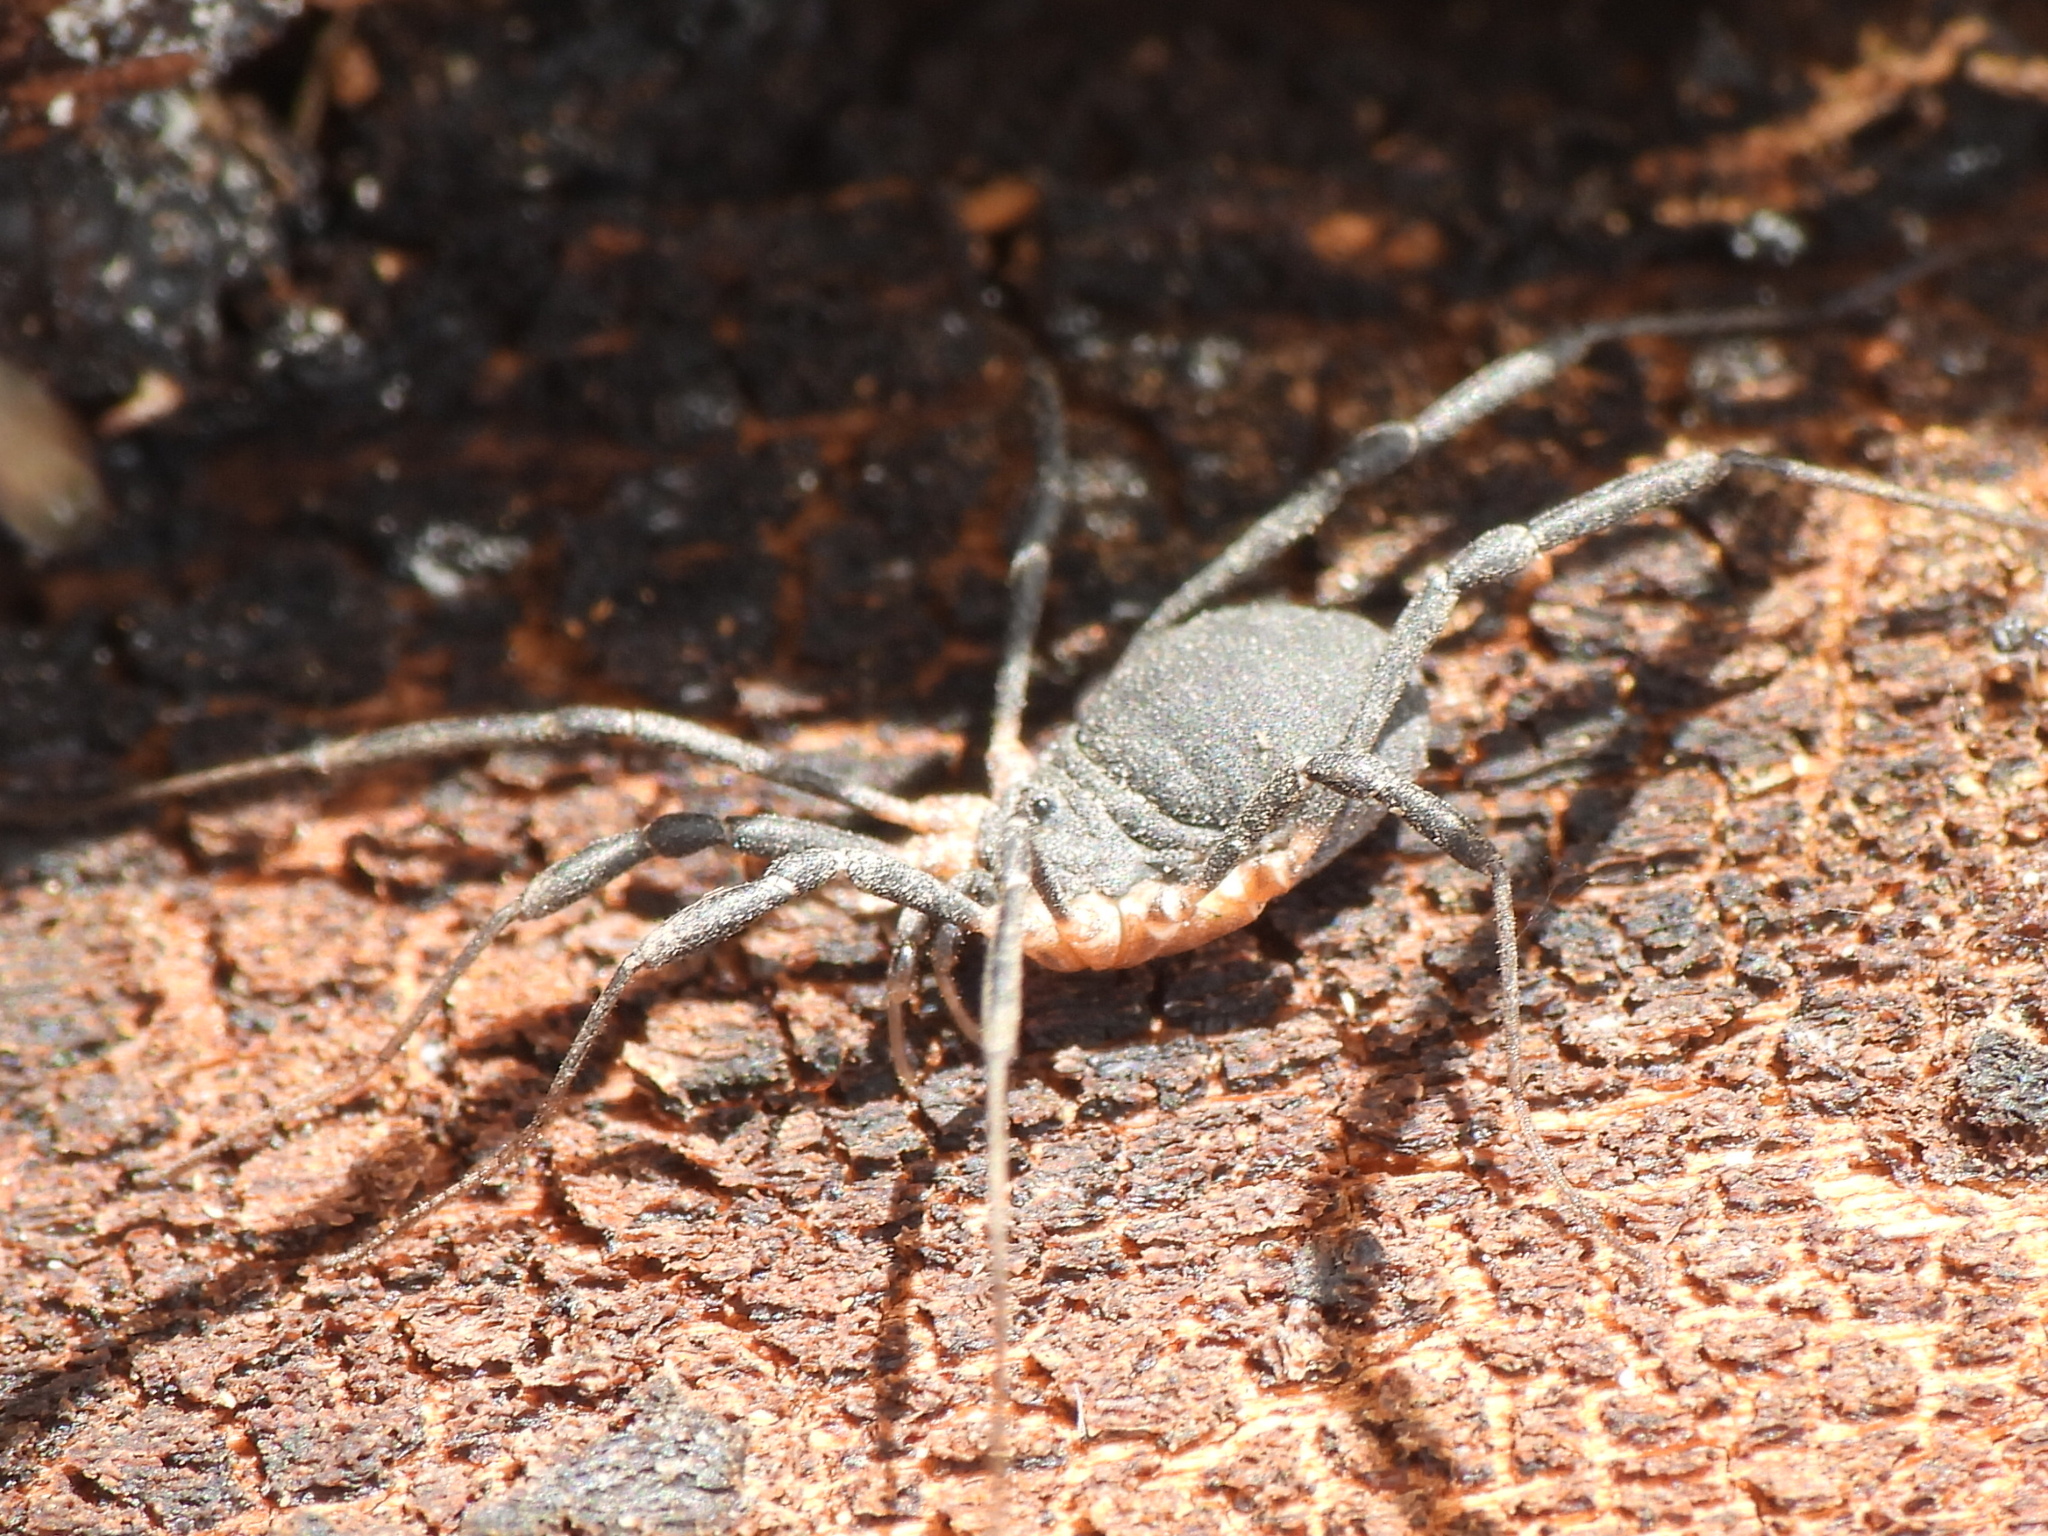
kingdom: Animalia
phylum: Arthropoda
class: Arachnida
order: Opiliones
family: Sclerosomatidae
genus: Eumesosoma
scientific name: Eumesosoma roeweri
